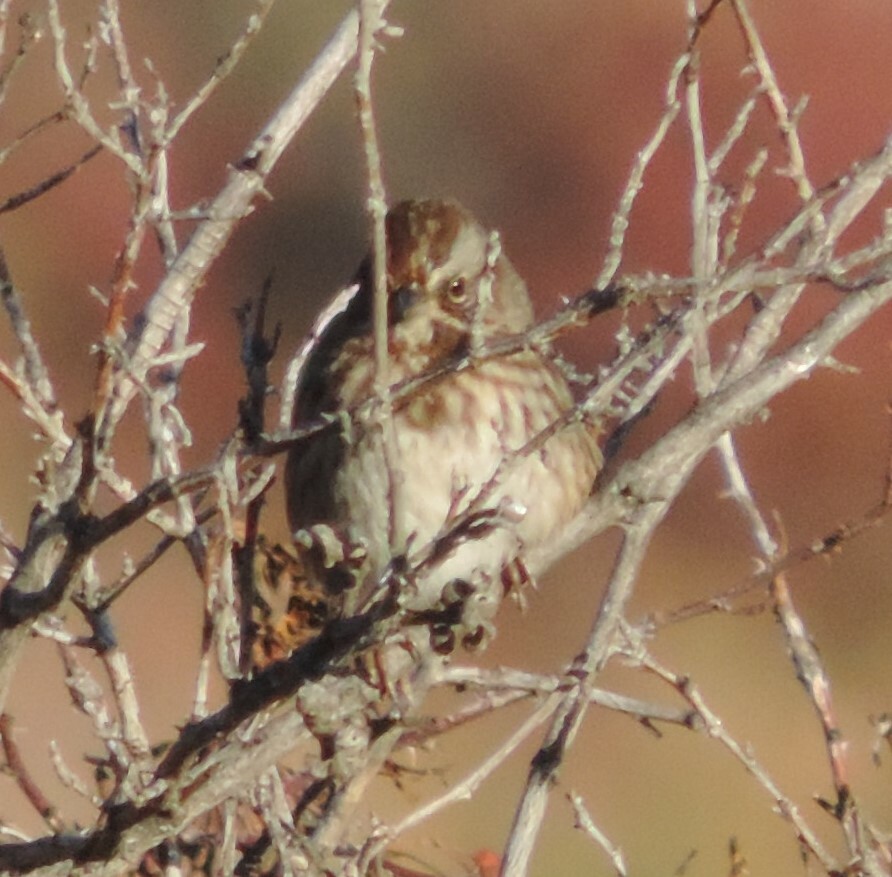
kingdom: Animalia
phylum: Chordata
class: Aves
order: Passeriformes
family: Passerellidae
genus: Melospiza
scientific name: Melospiza melodia
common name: Song sparrow
